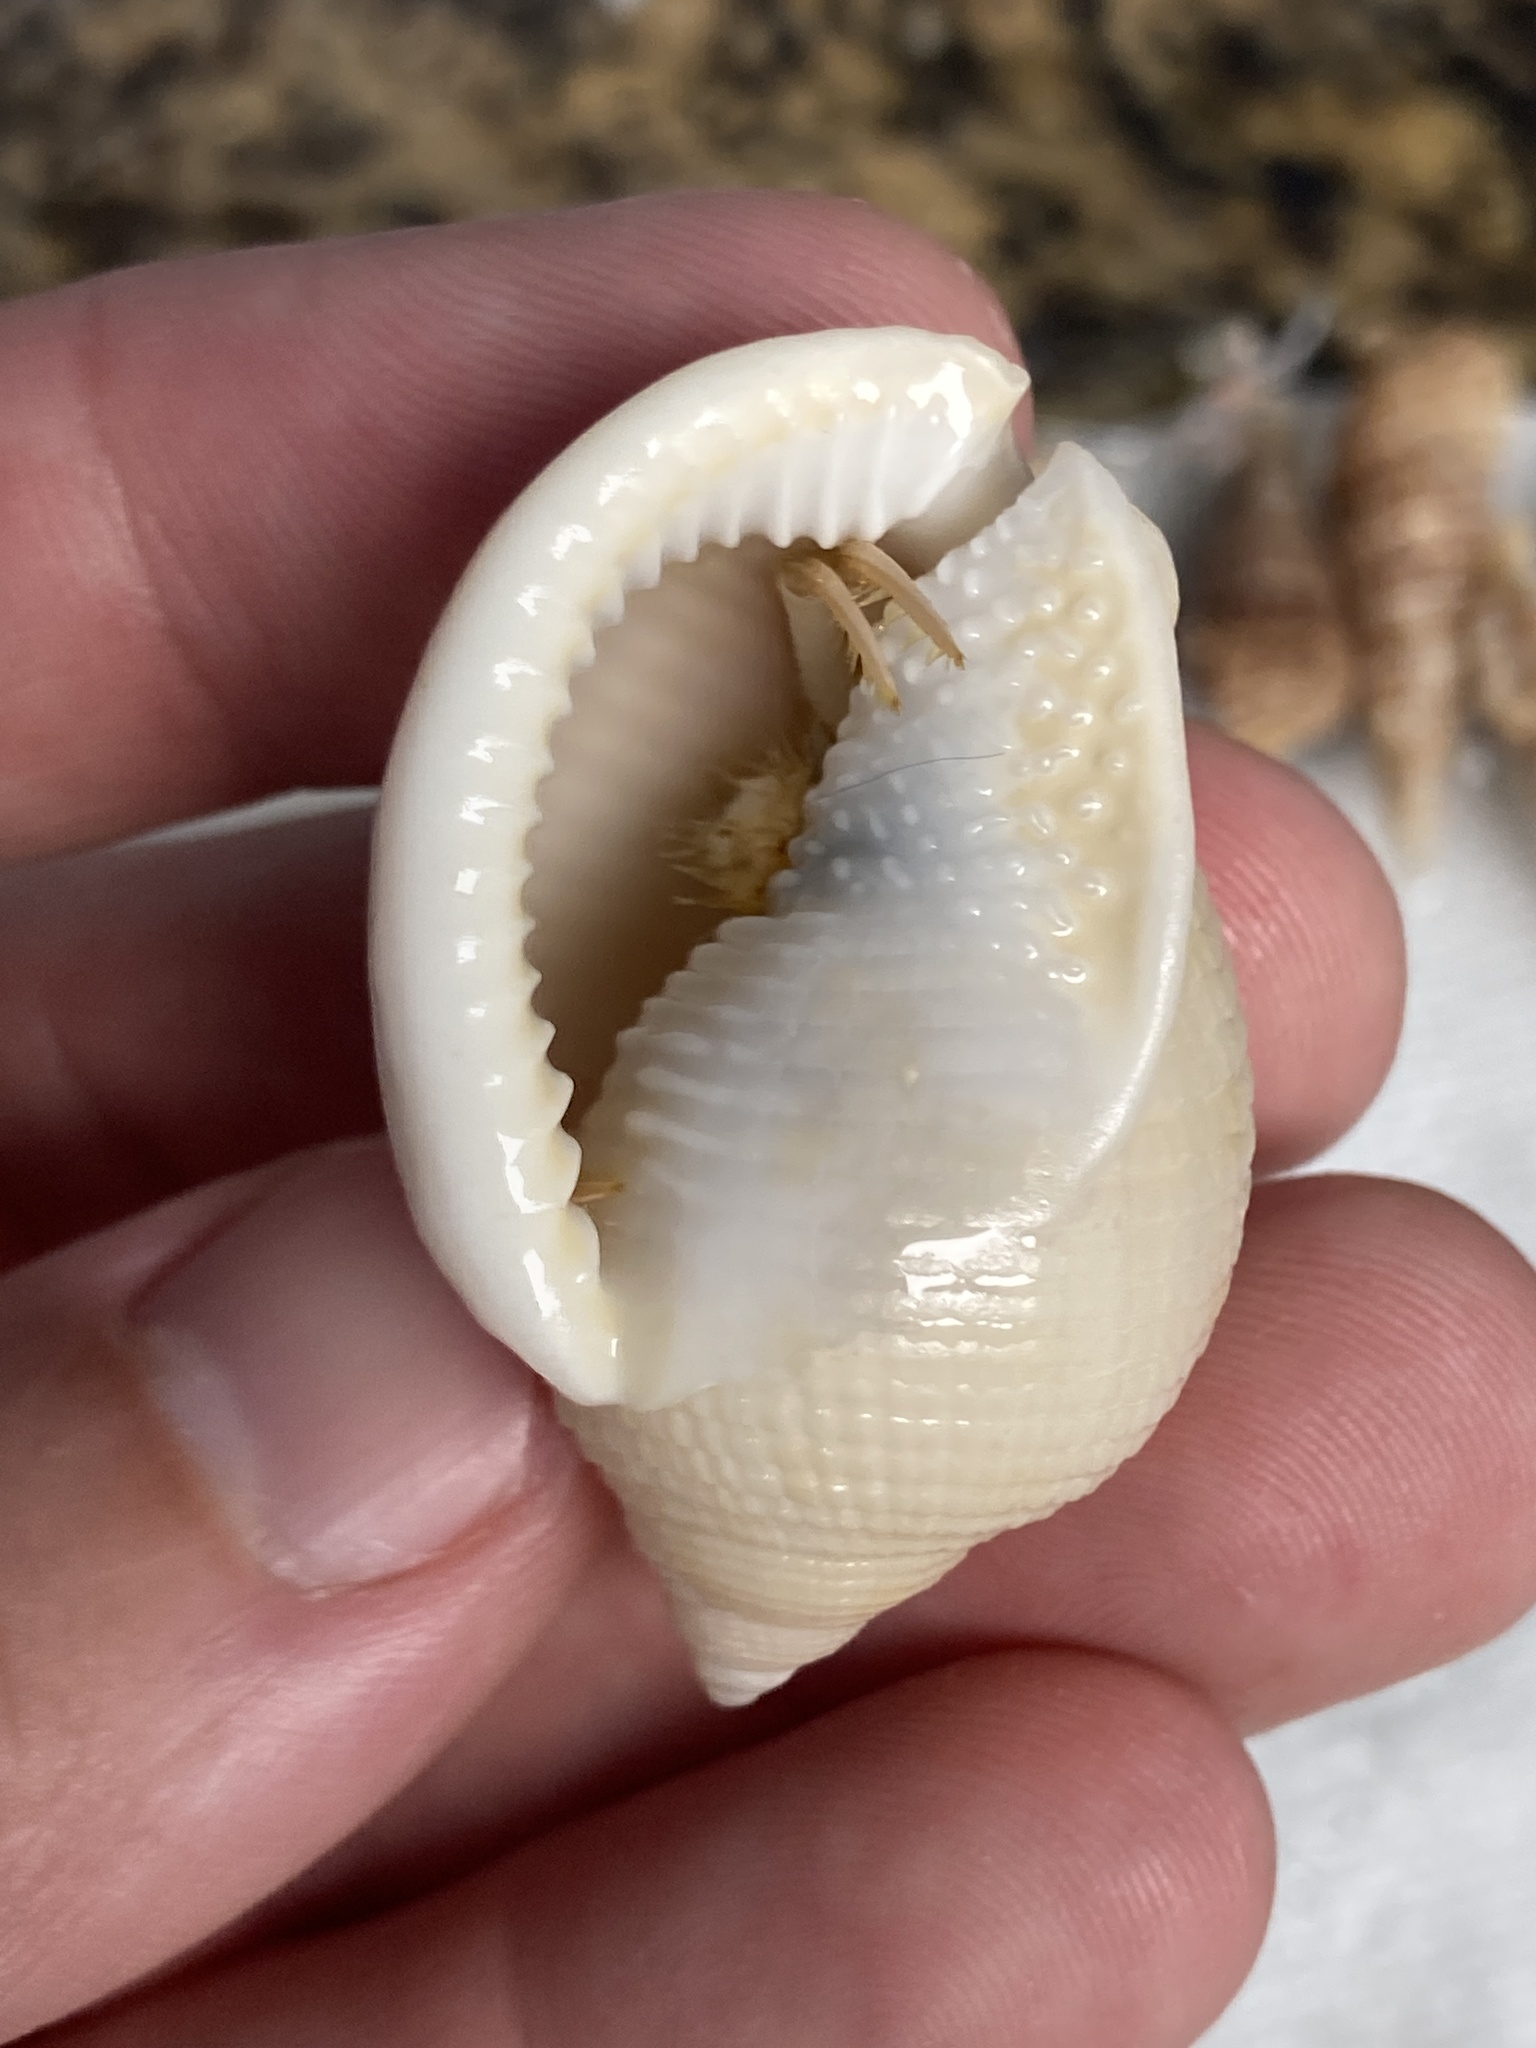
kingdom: Animalia
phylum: Mollusca
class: Gastropoda
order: Littorinimorpha
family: Cassidae
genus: Semicassis
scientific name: Semicassis granulata
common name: Scotch bonnet
